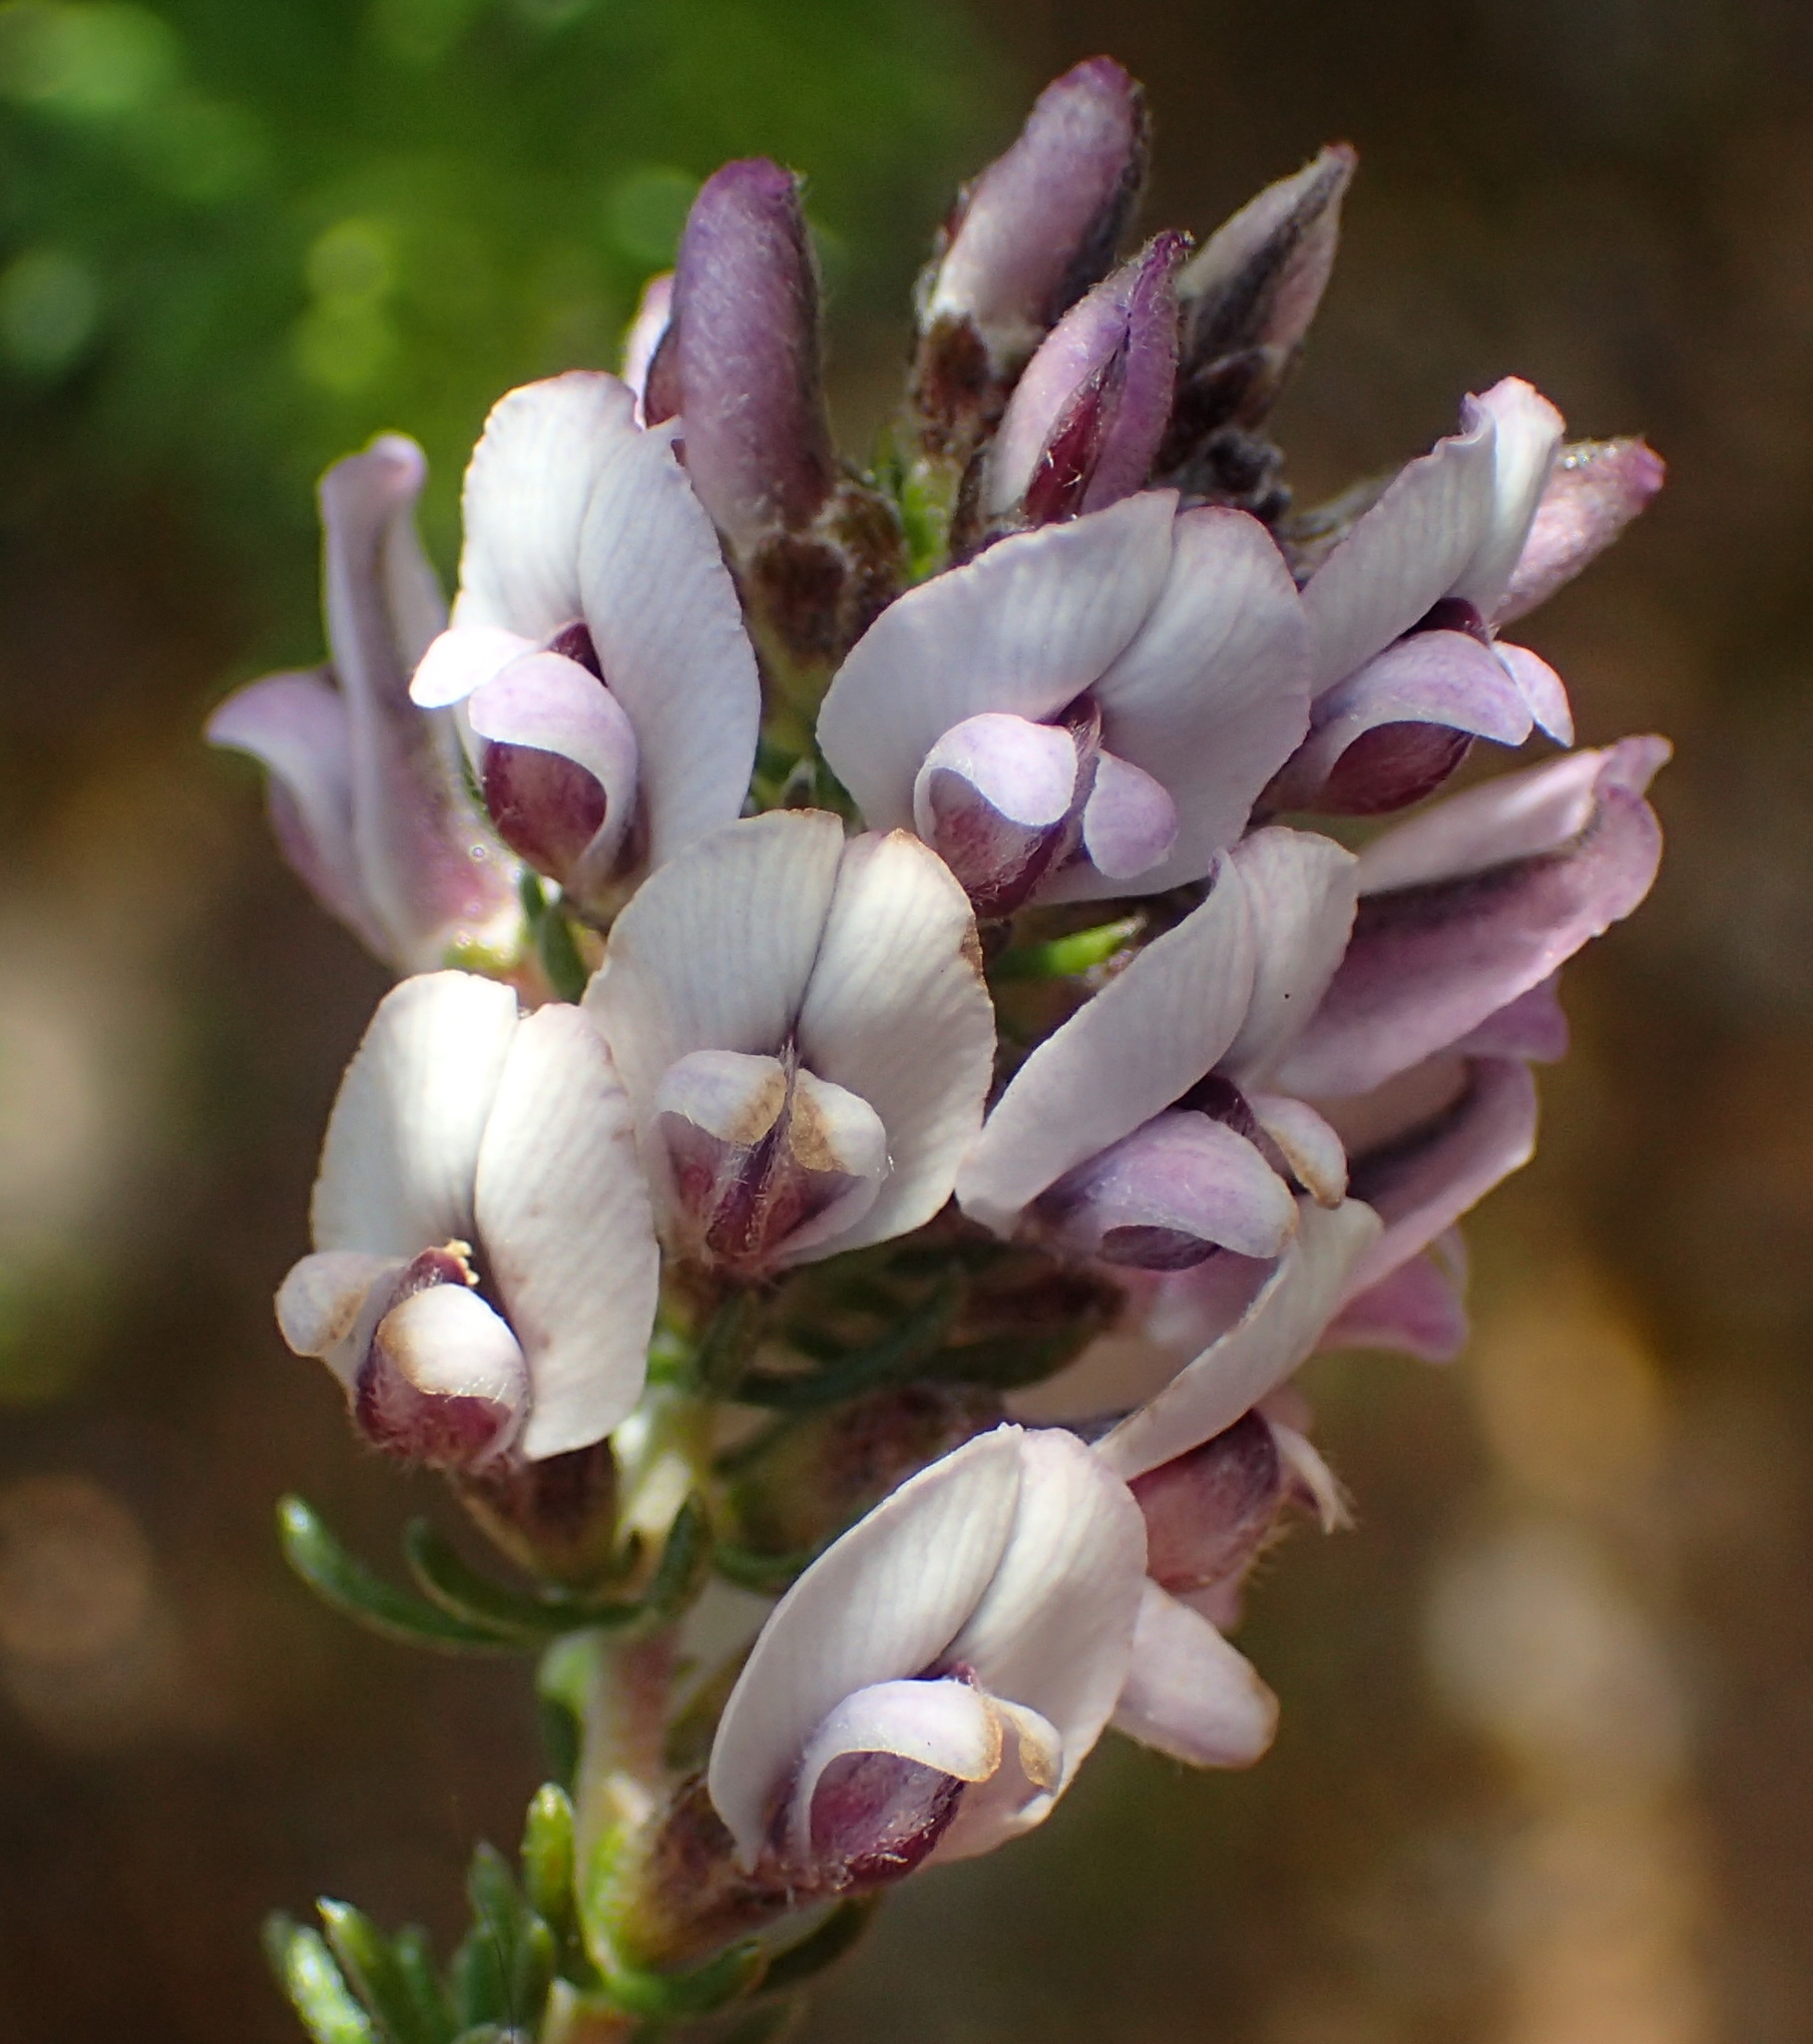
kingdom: Plantae
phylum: Tracheophyta
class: Magnoliopsida
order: Fabales
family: Fabaceae
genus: Aspalathus
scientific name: Aspalathus nigra
